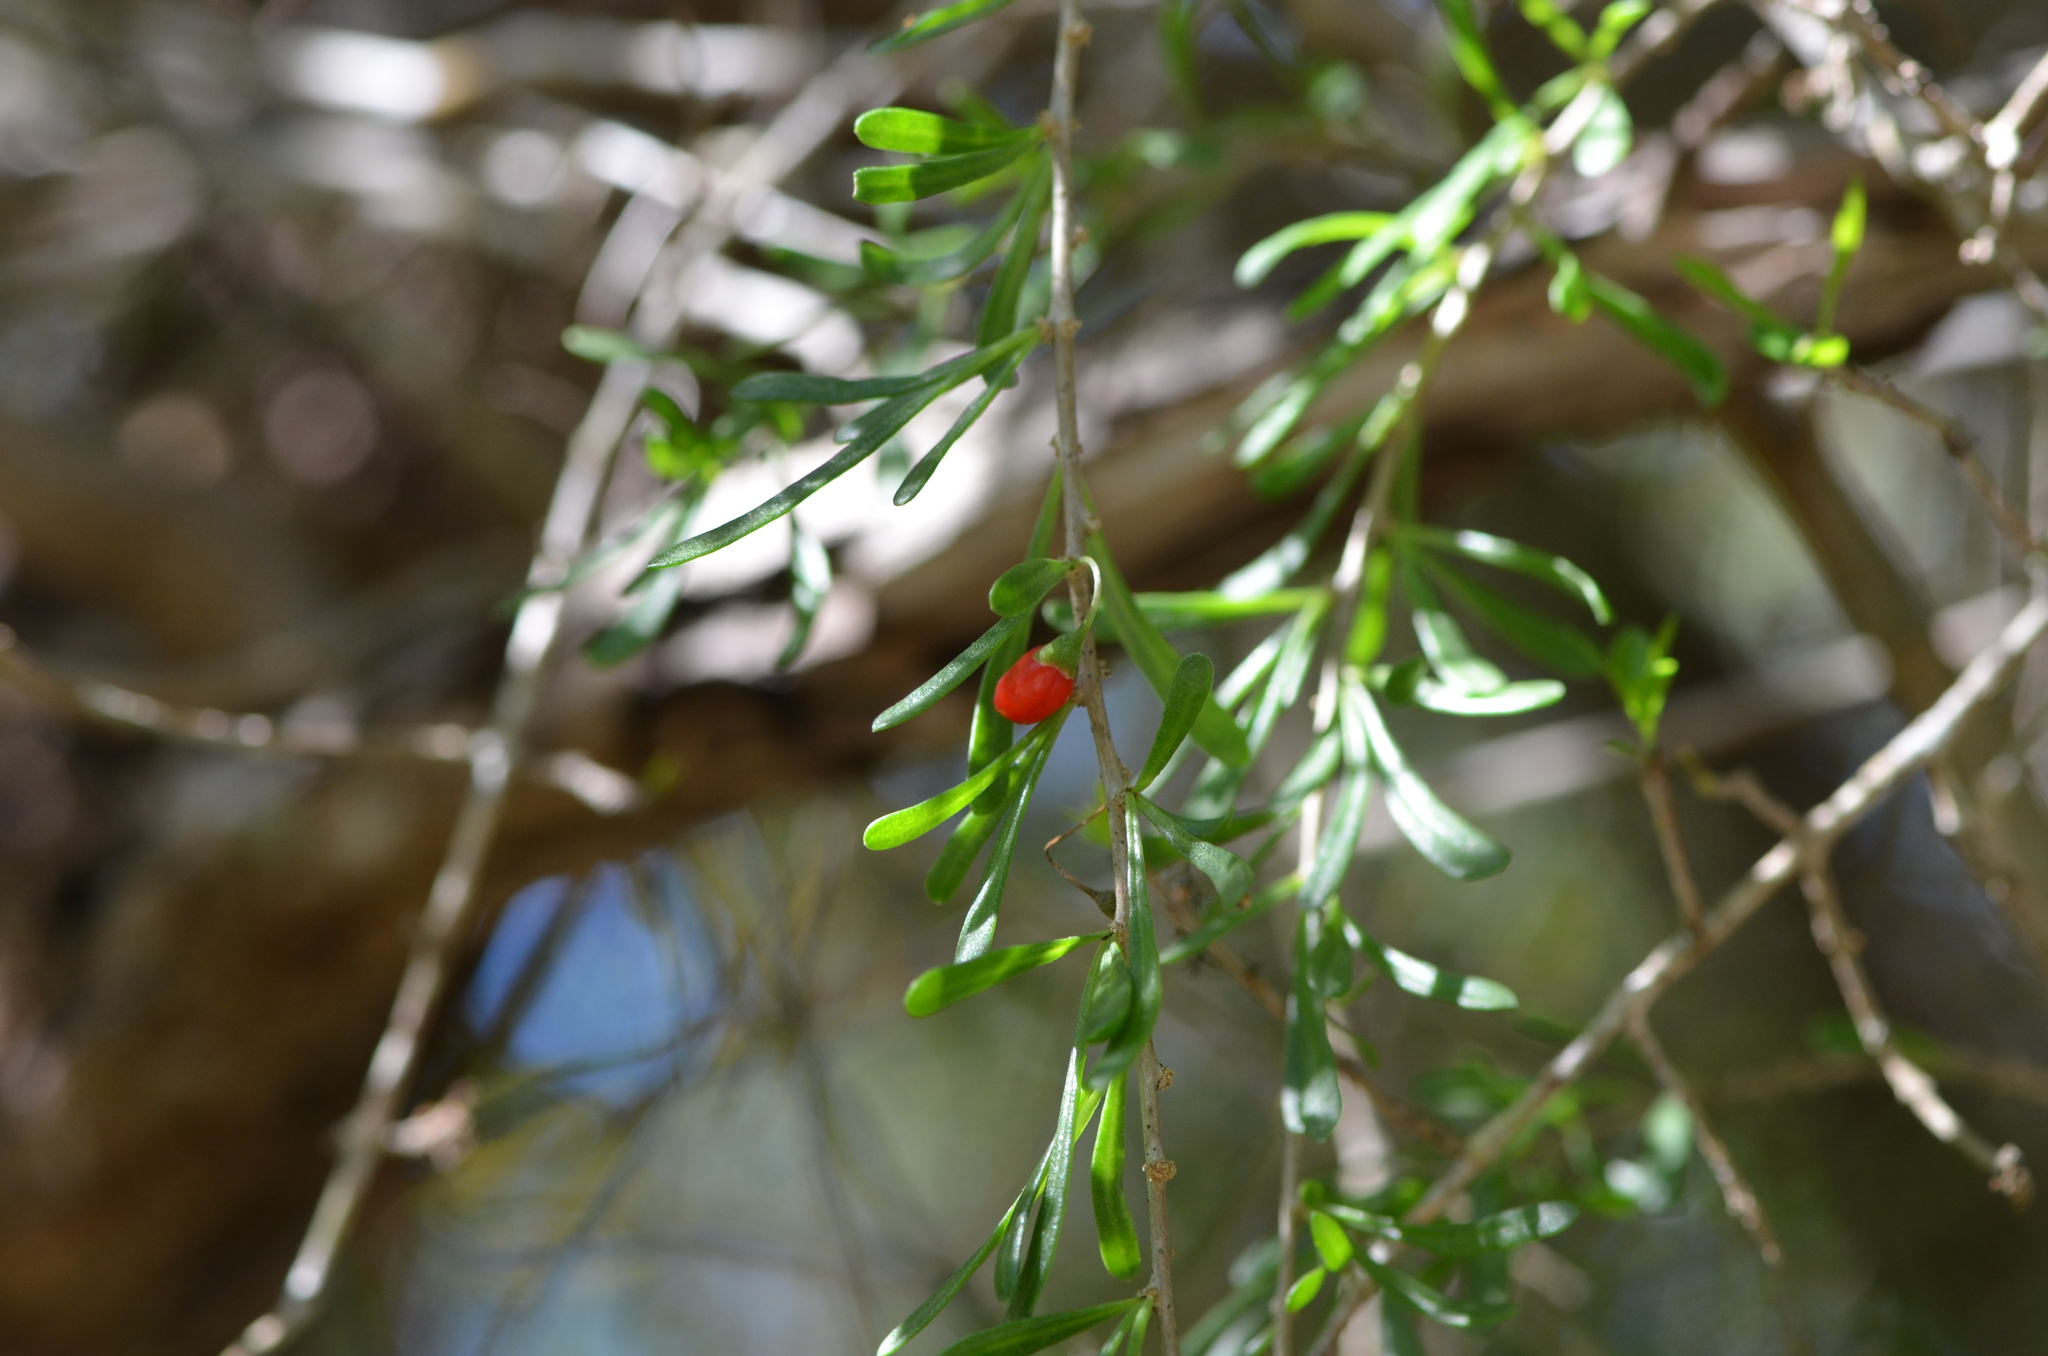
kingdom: Plantae
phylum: Tracheophyta
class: Magnoliopsida
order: Solanales
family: Solanaceae
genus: Lycium
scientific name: Lycium carolinianum
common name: Christmasberry
